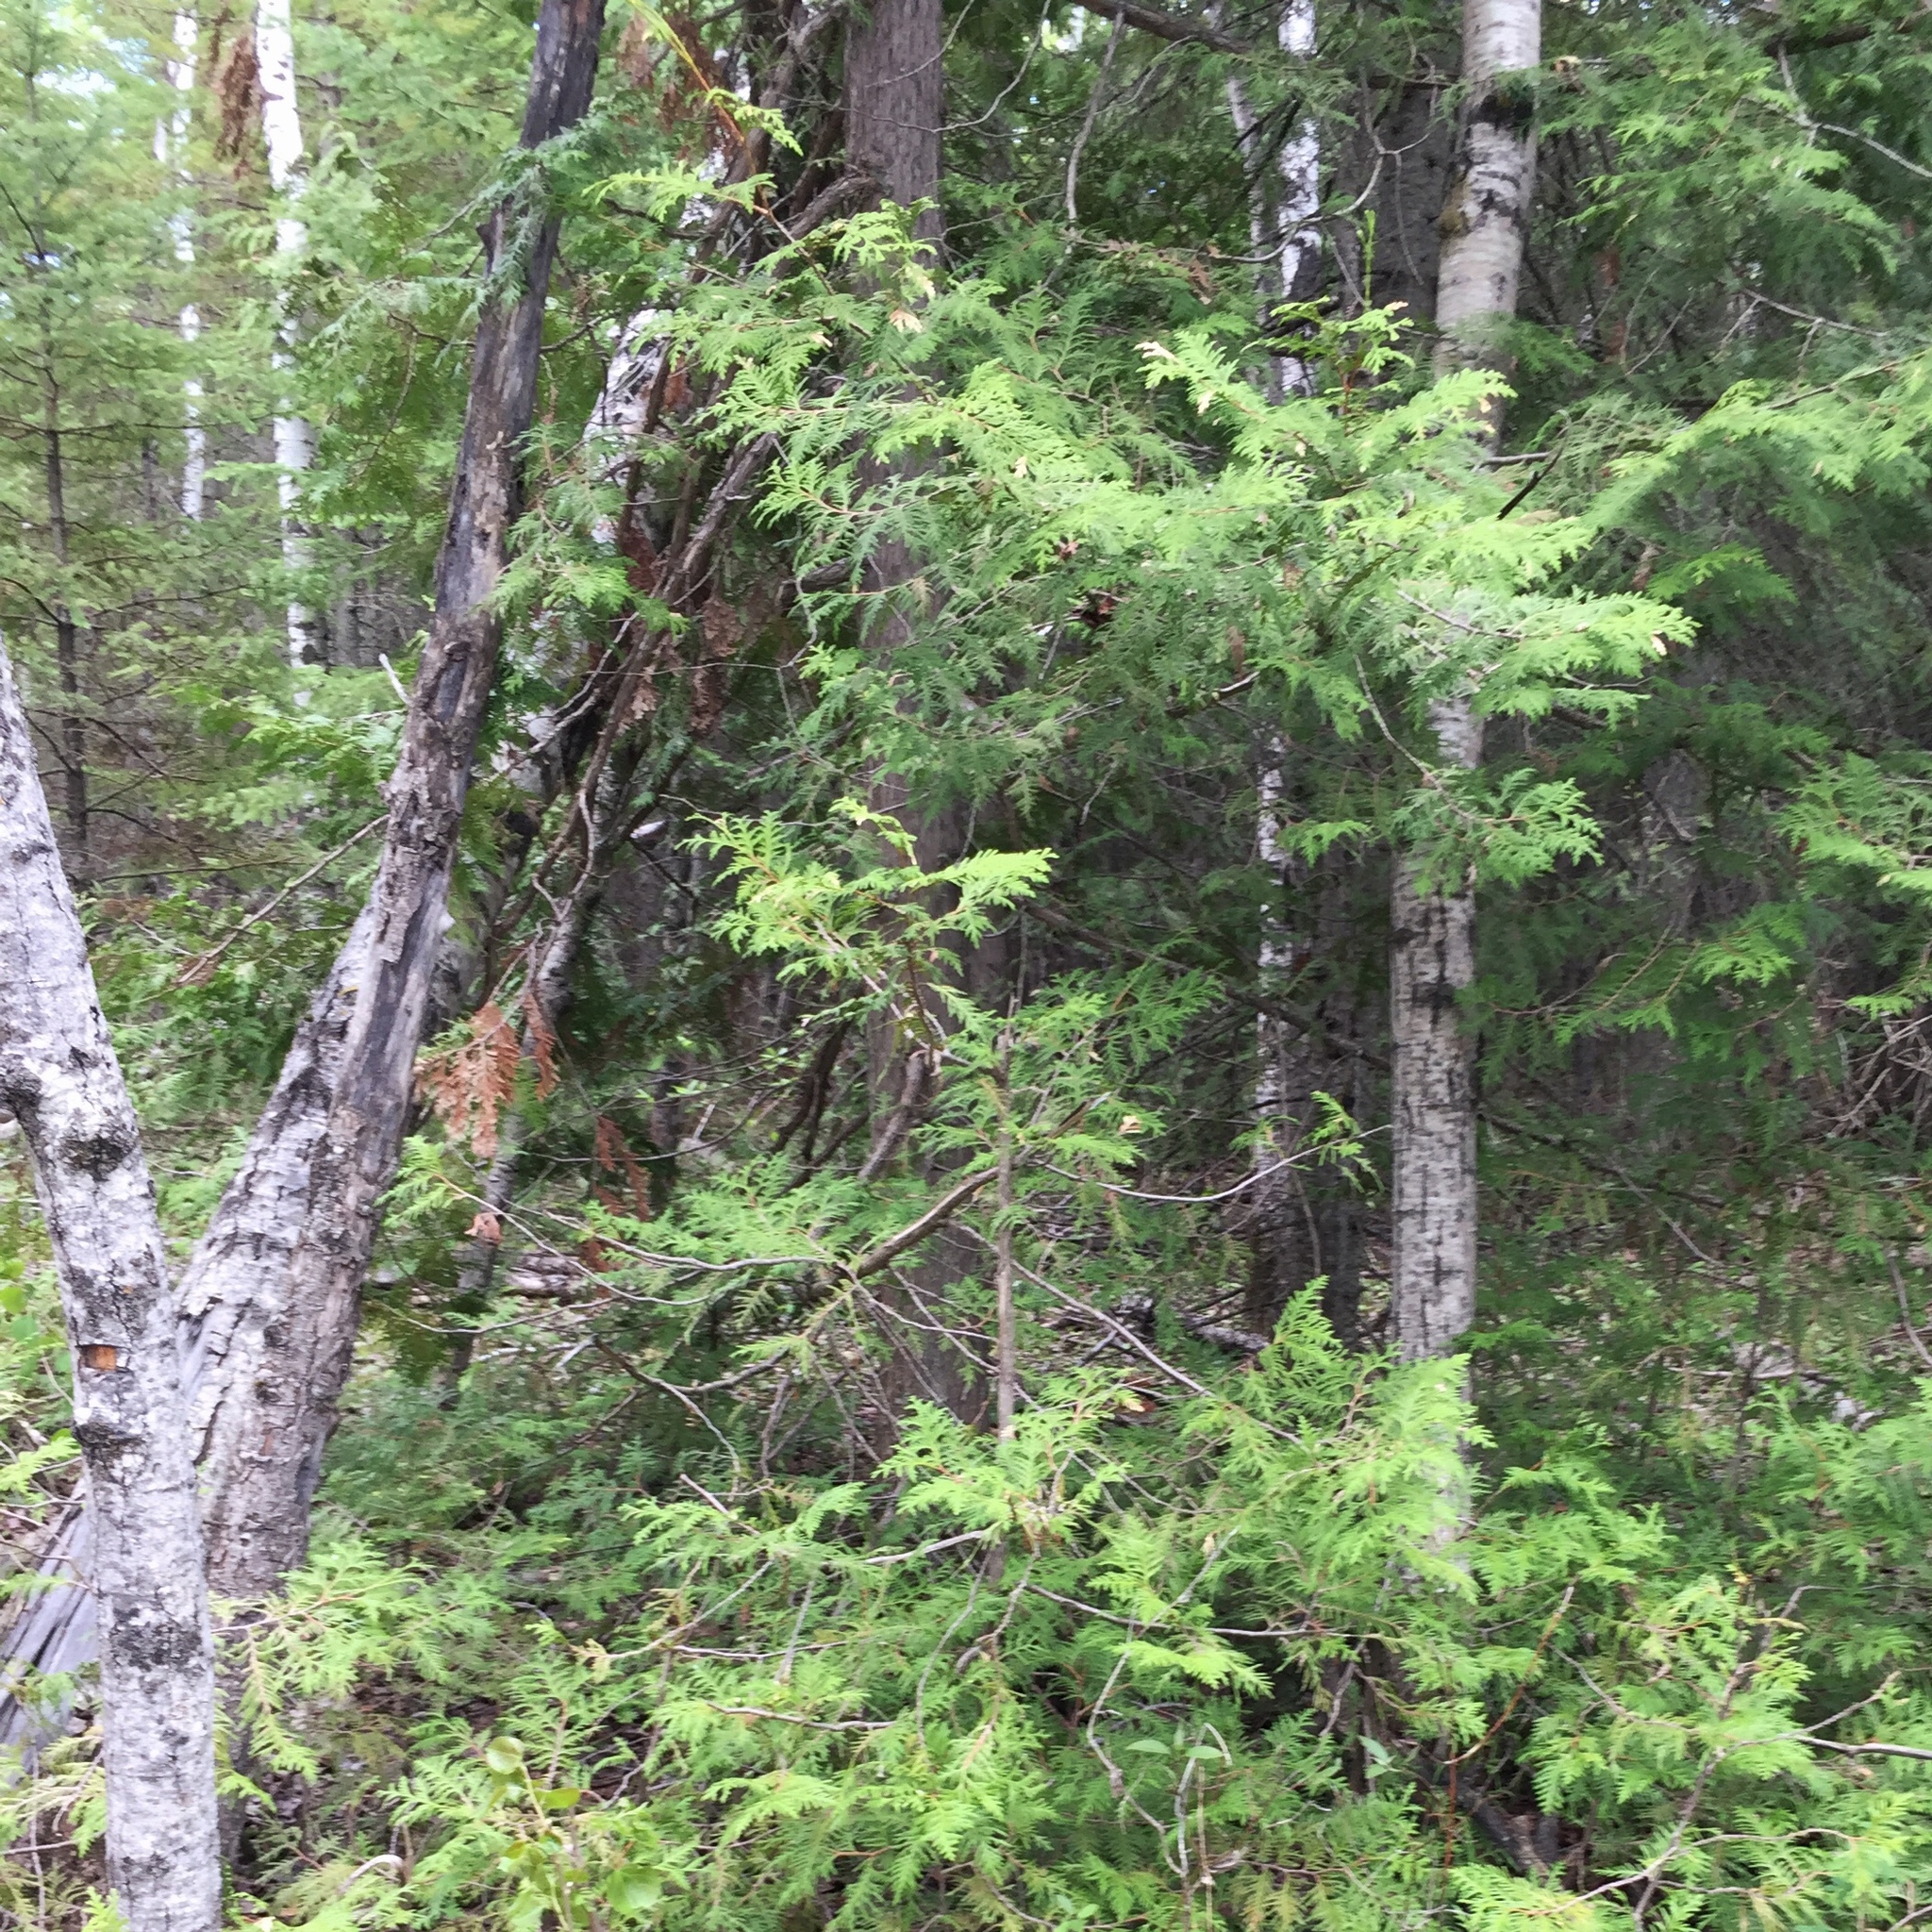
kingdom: Plantae
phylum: Tracheophyta
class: Pinopsida
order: Pinales
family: Cupressaceae
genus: Thuja
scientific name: Thuja occidentalis
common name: Northern white-cedar
